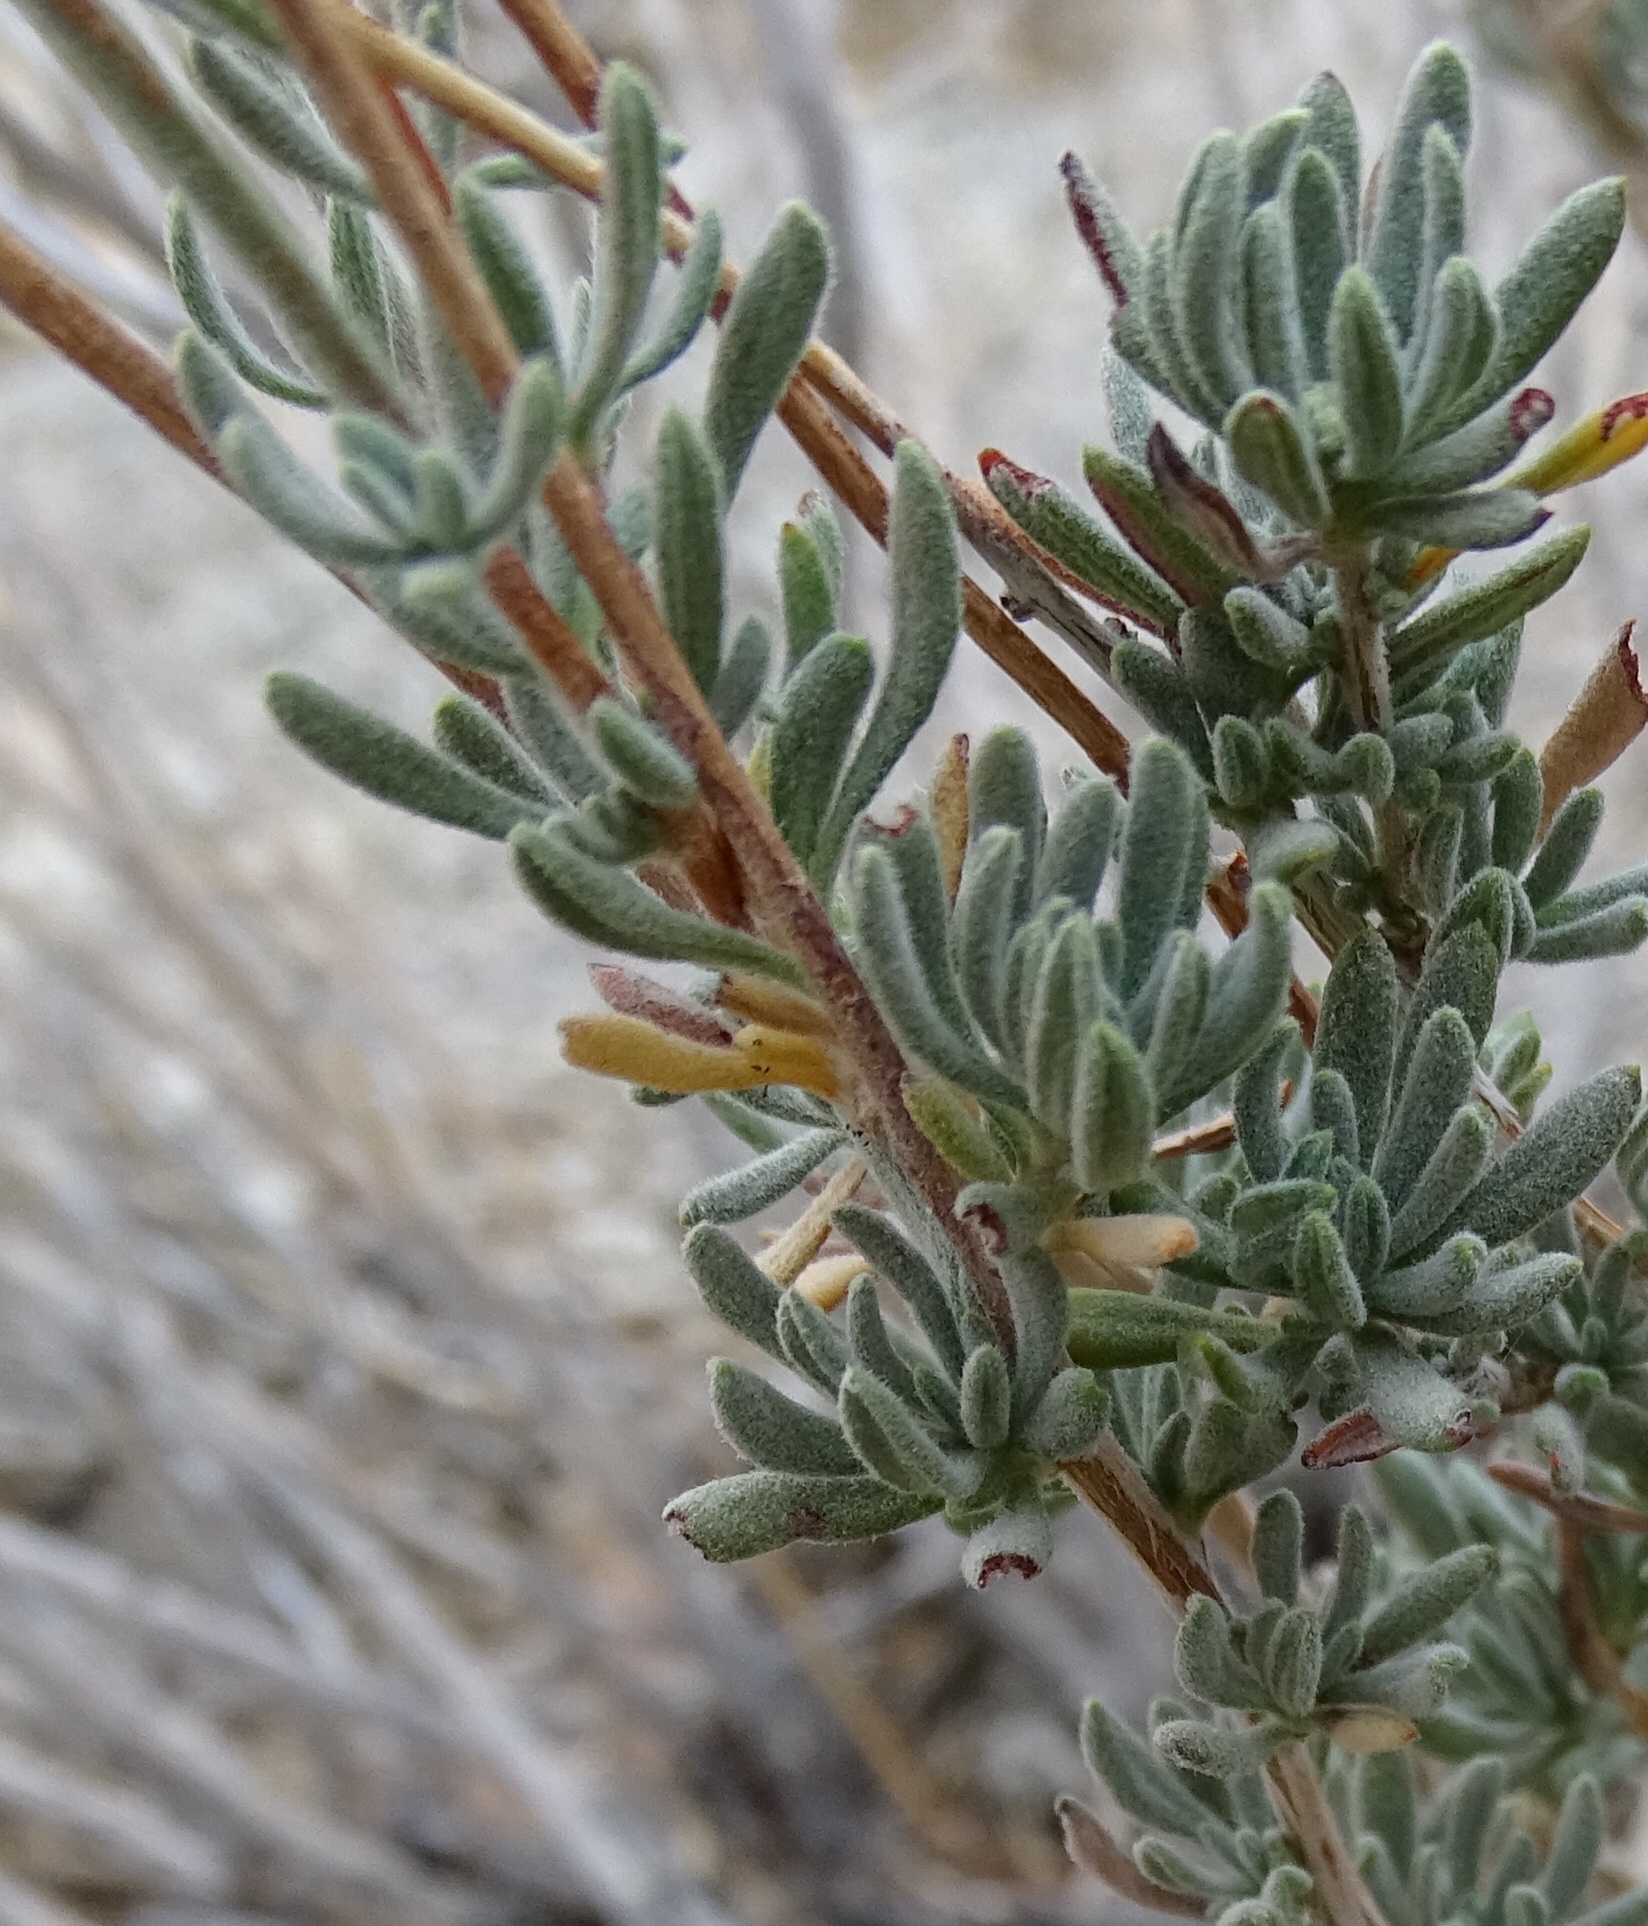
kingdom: Plantae
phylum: Tracheophyta
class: Magnoliopsida
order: Caryophyllales
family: Polygonaceae
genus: Eriogonum
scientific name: Eriogonum fasciculatum
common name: California wild buckwheat
